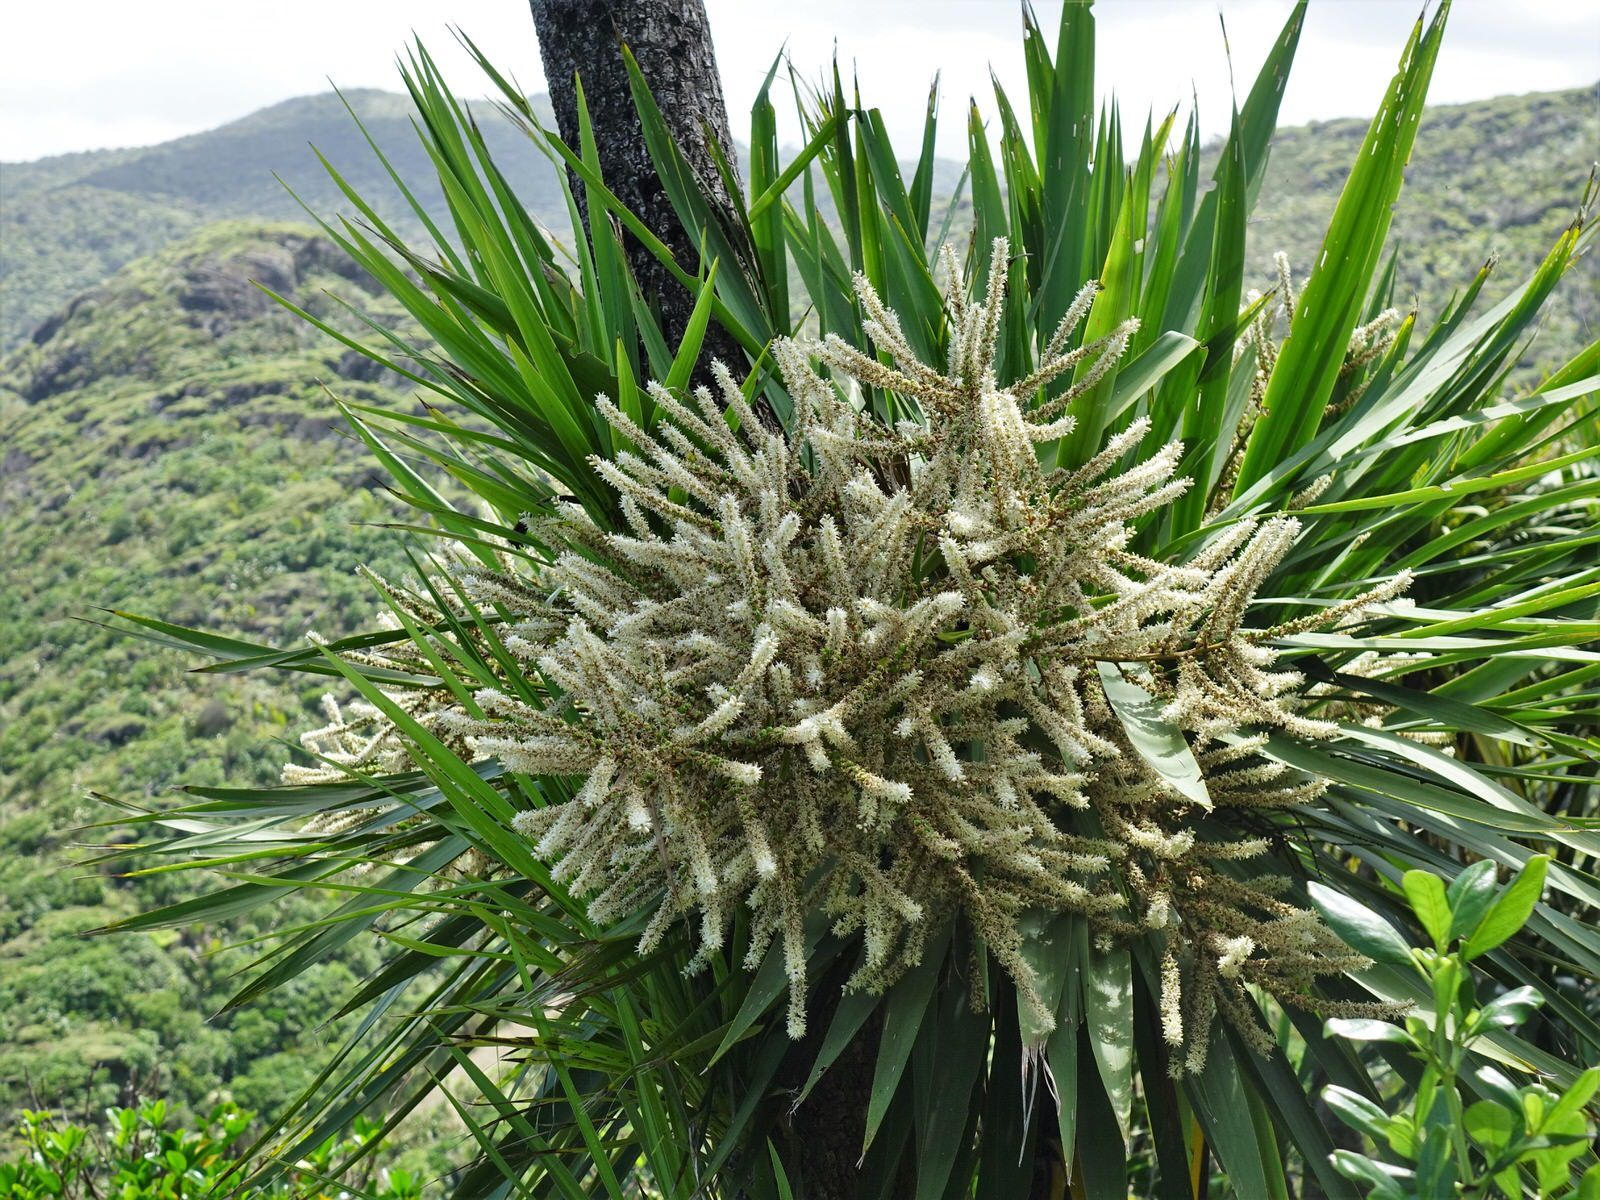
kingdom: Plantae
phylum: Tracheophyta
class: Liliopsida
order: Asparagales
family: Asparagaceae
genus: Cordyline
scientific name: Cordyline australis
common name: Cabbage-palm
